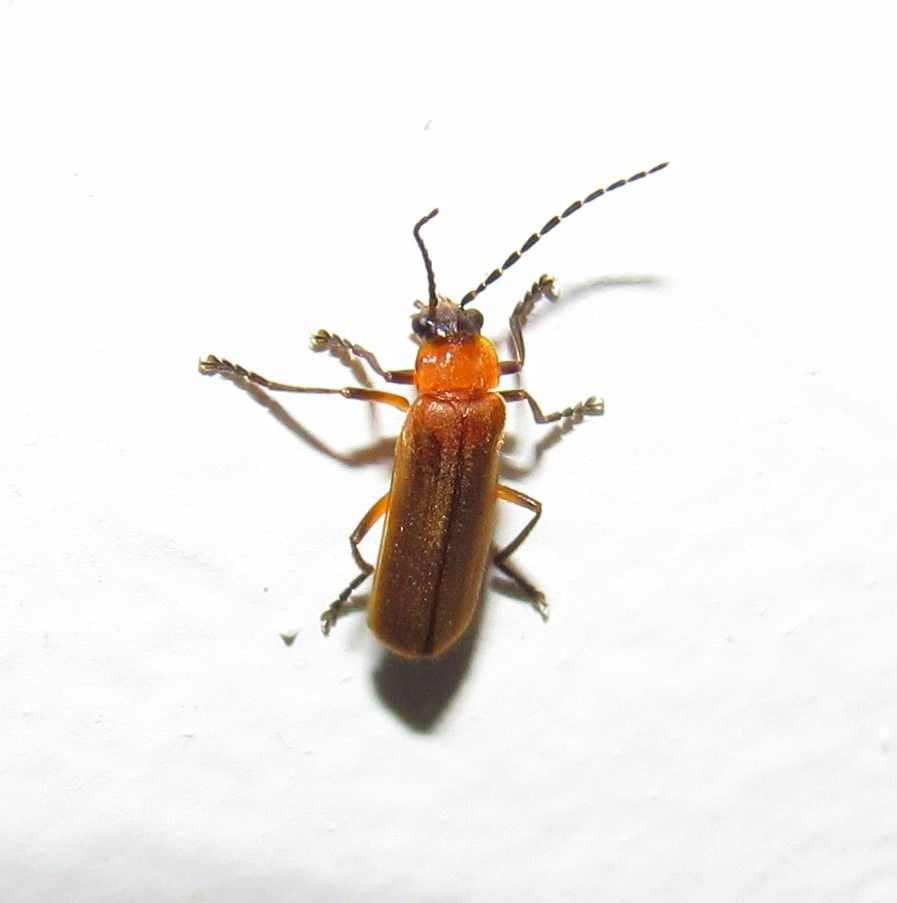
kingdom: Animalia
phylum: Arthropoda
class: Insecta
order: Coleoptera
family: Cantharidae
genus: Discodon
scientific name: Discodon
